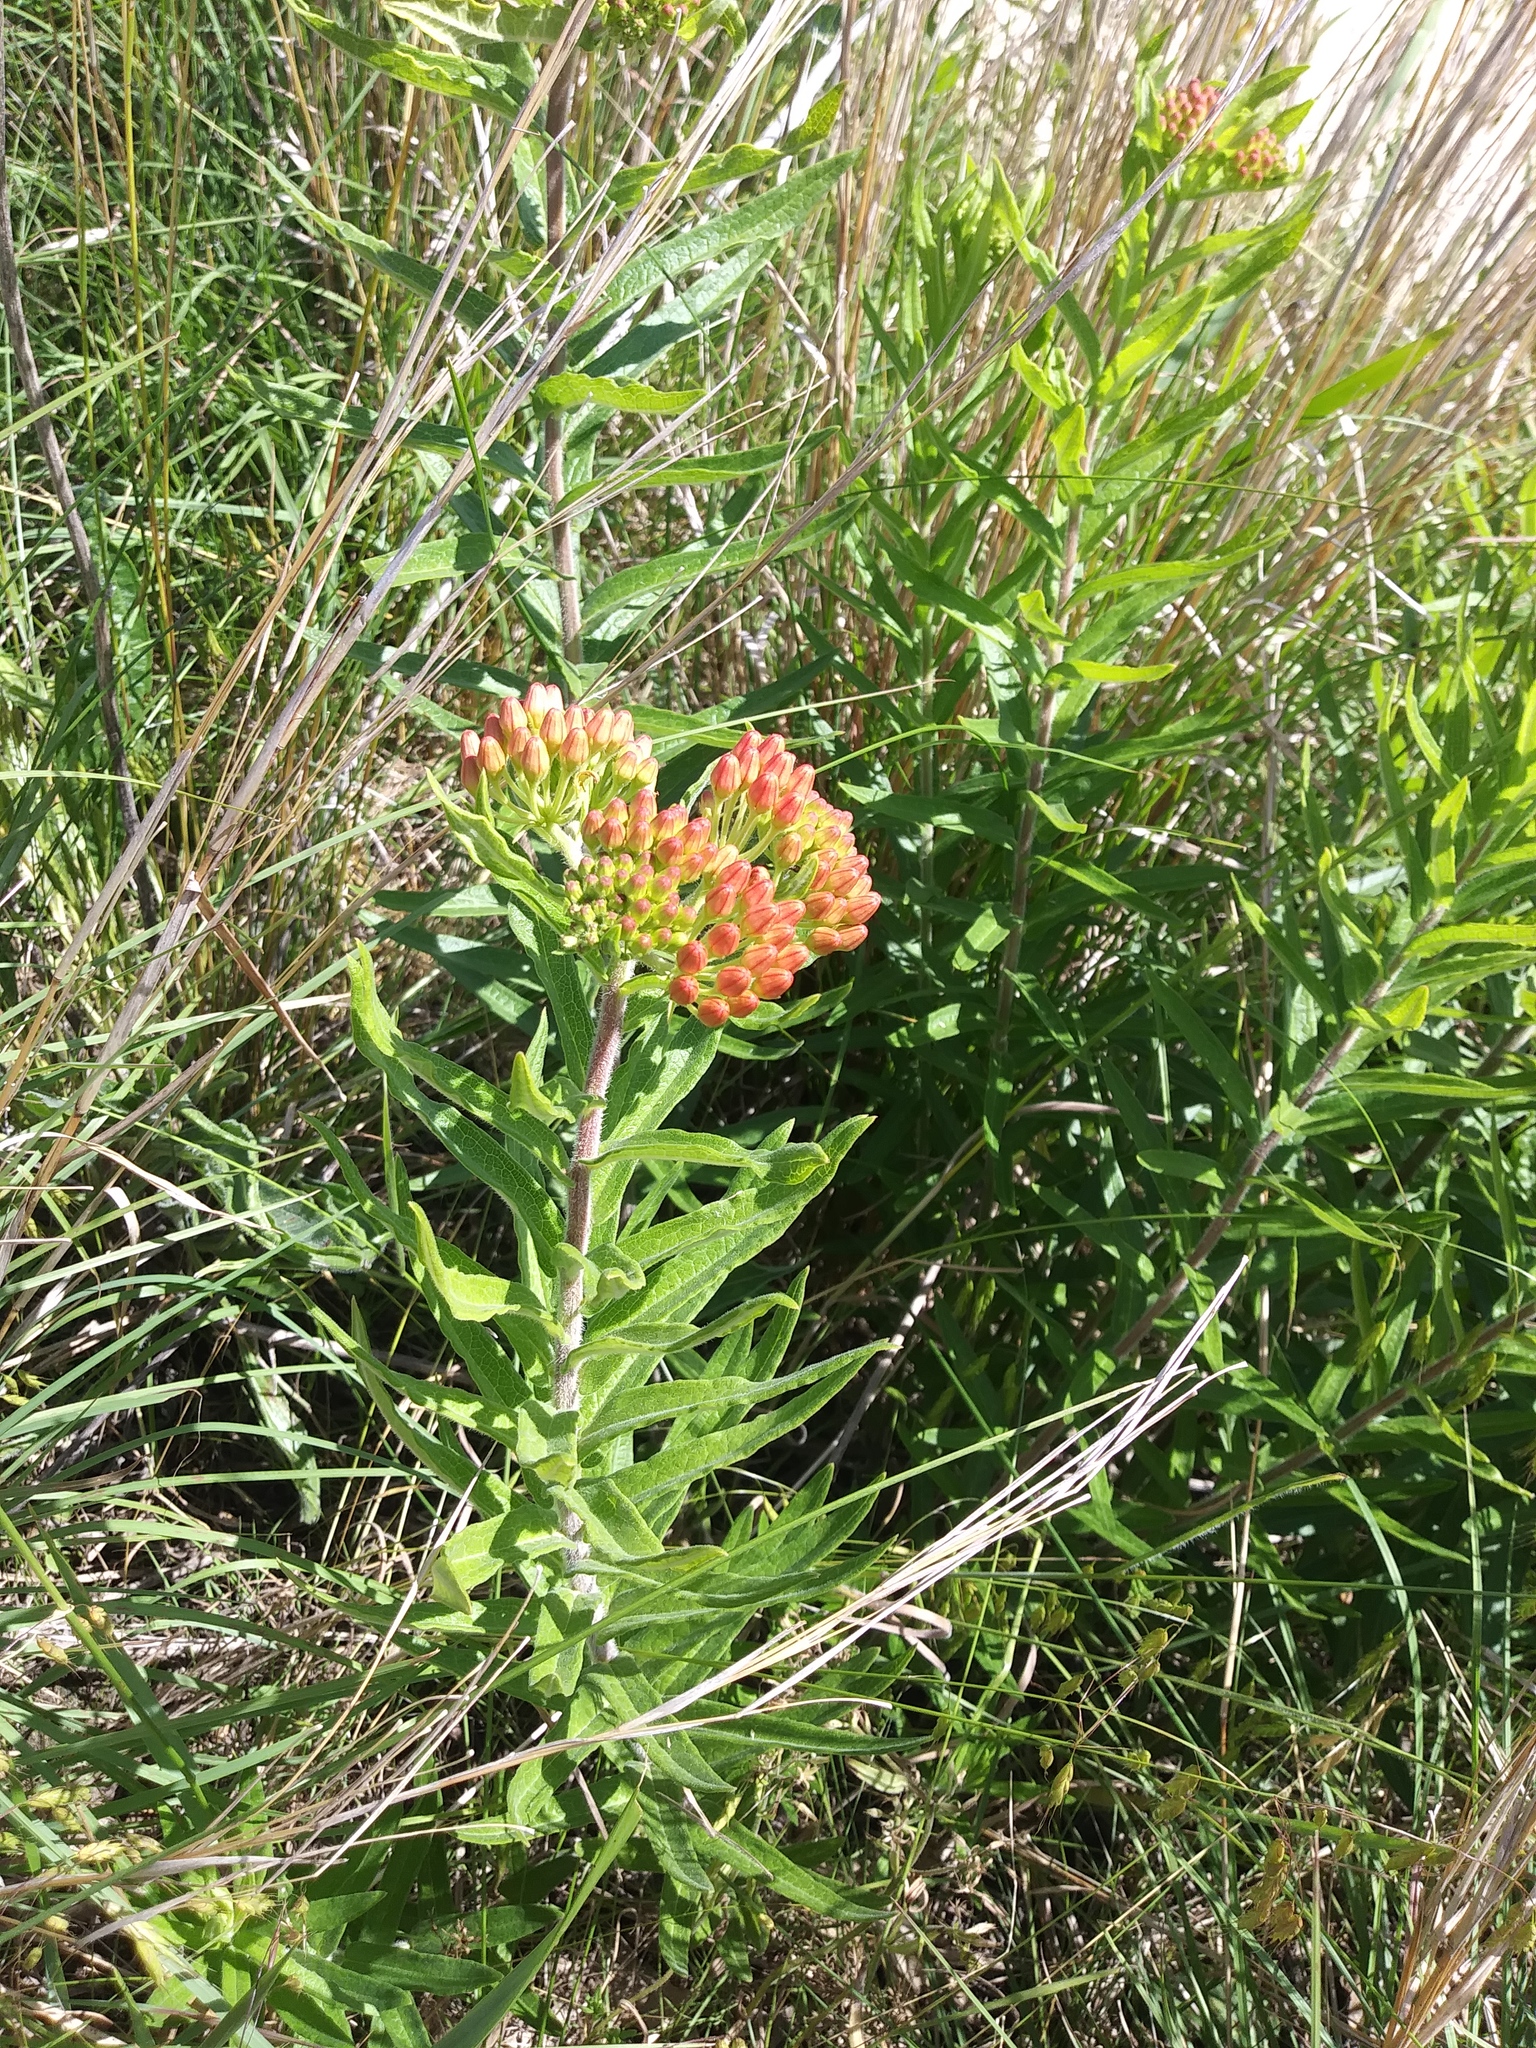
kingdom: Plantae
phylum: Tracheophyta
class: Magnoliopsida
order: Gentianales
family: Apocynaceae
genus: Asclepias
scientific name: Asclepias tuberosa
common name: Butterfly milkweed
